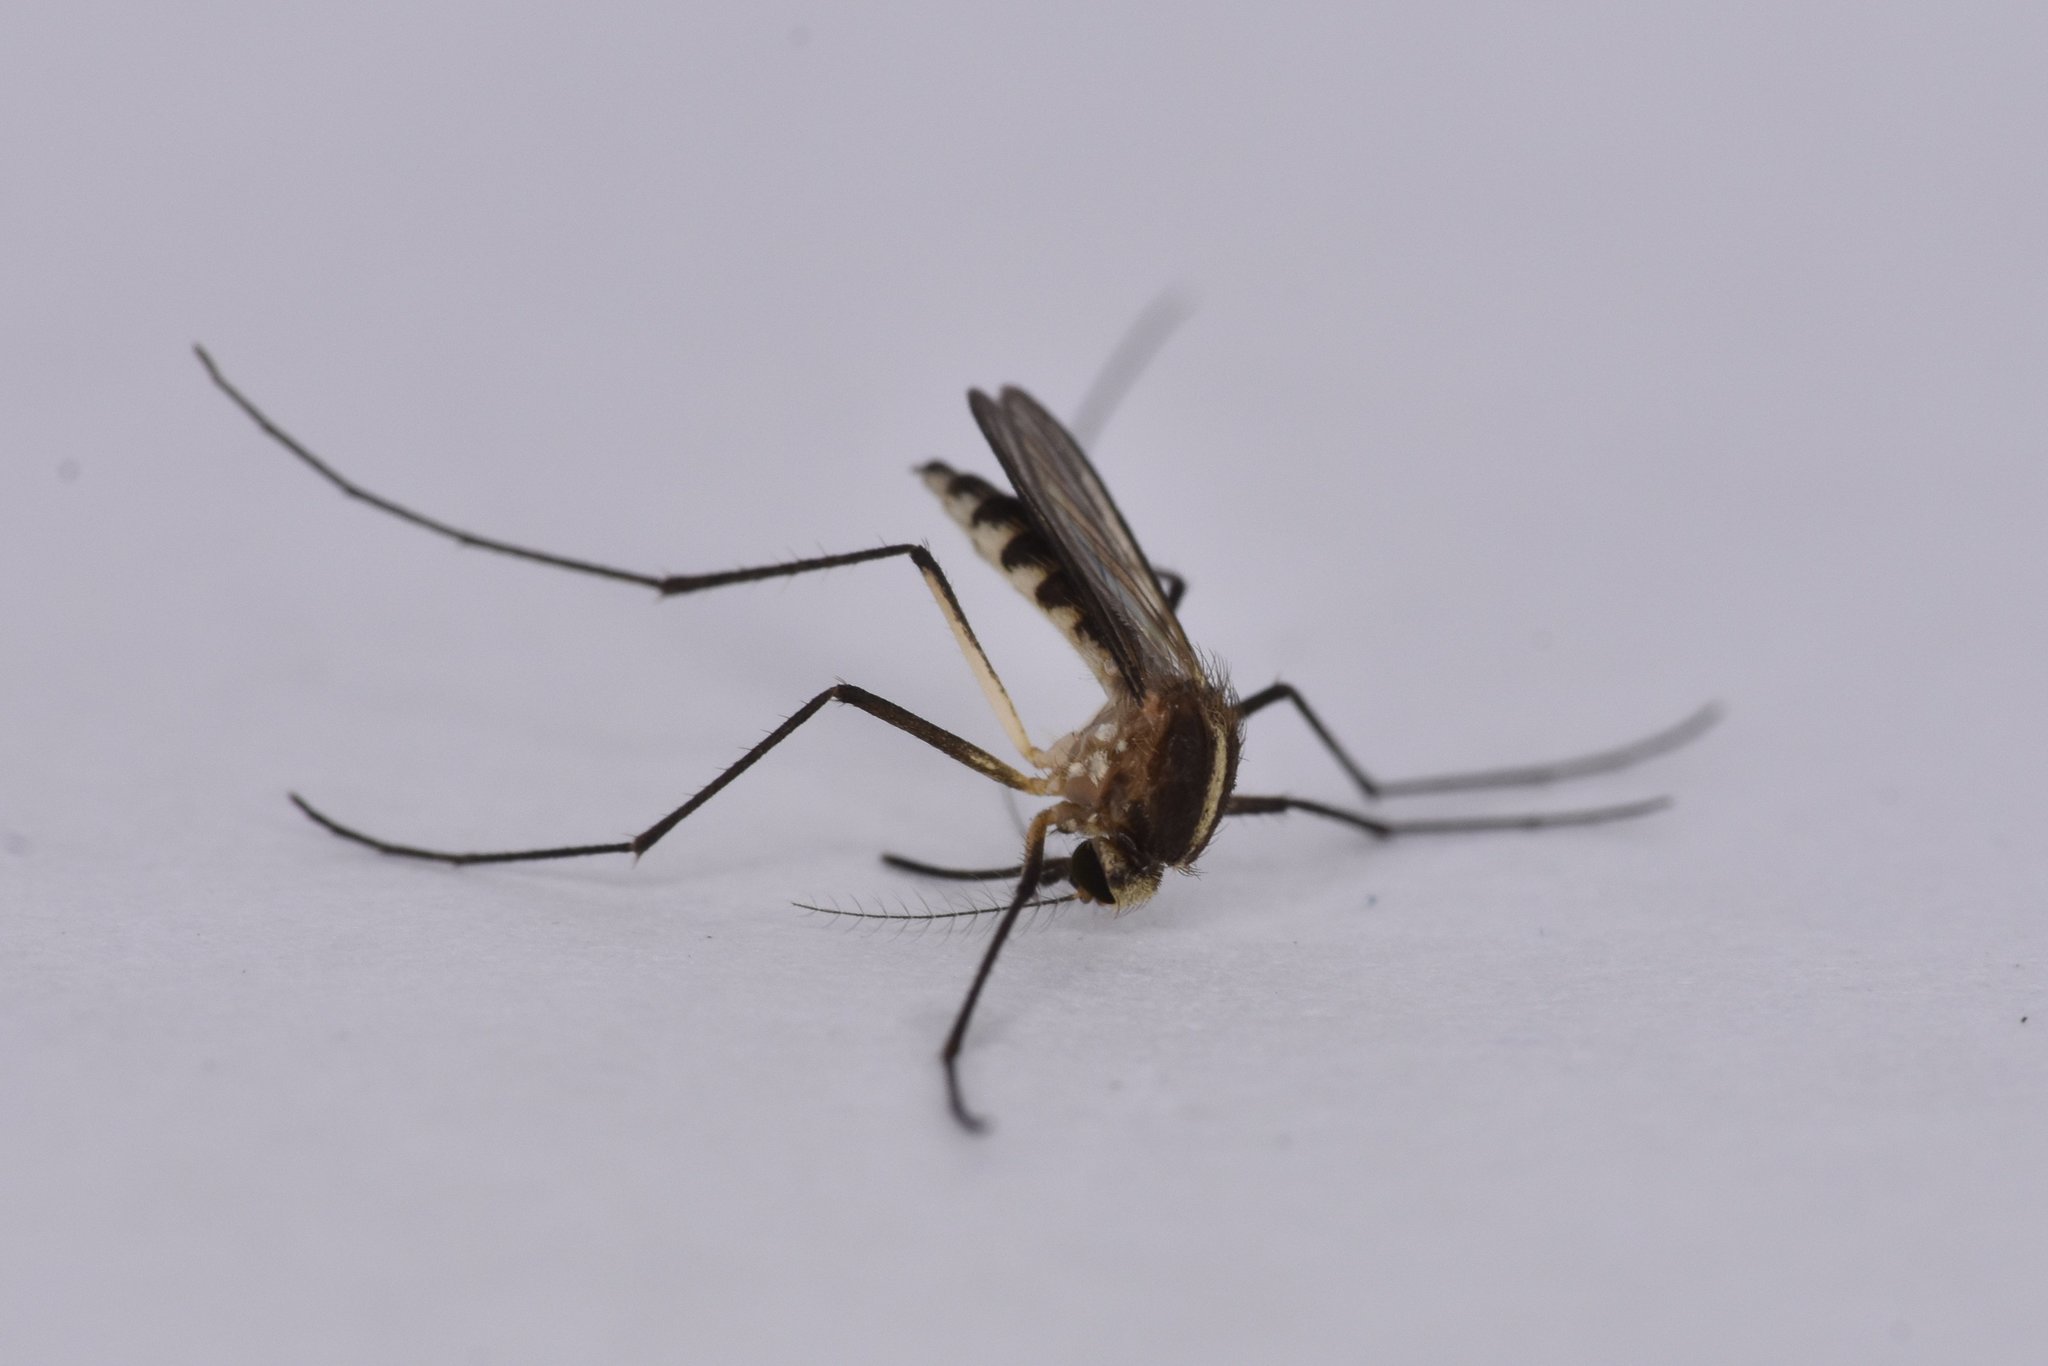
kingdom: Animalia
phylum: Arthropoda
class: Insecta
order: Diptera
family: Culicidae
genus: Aedes
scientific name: Aedes tormentor
